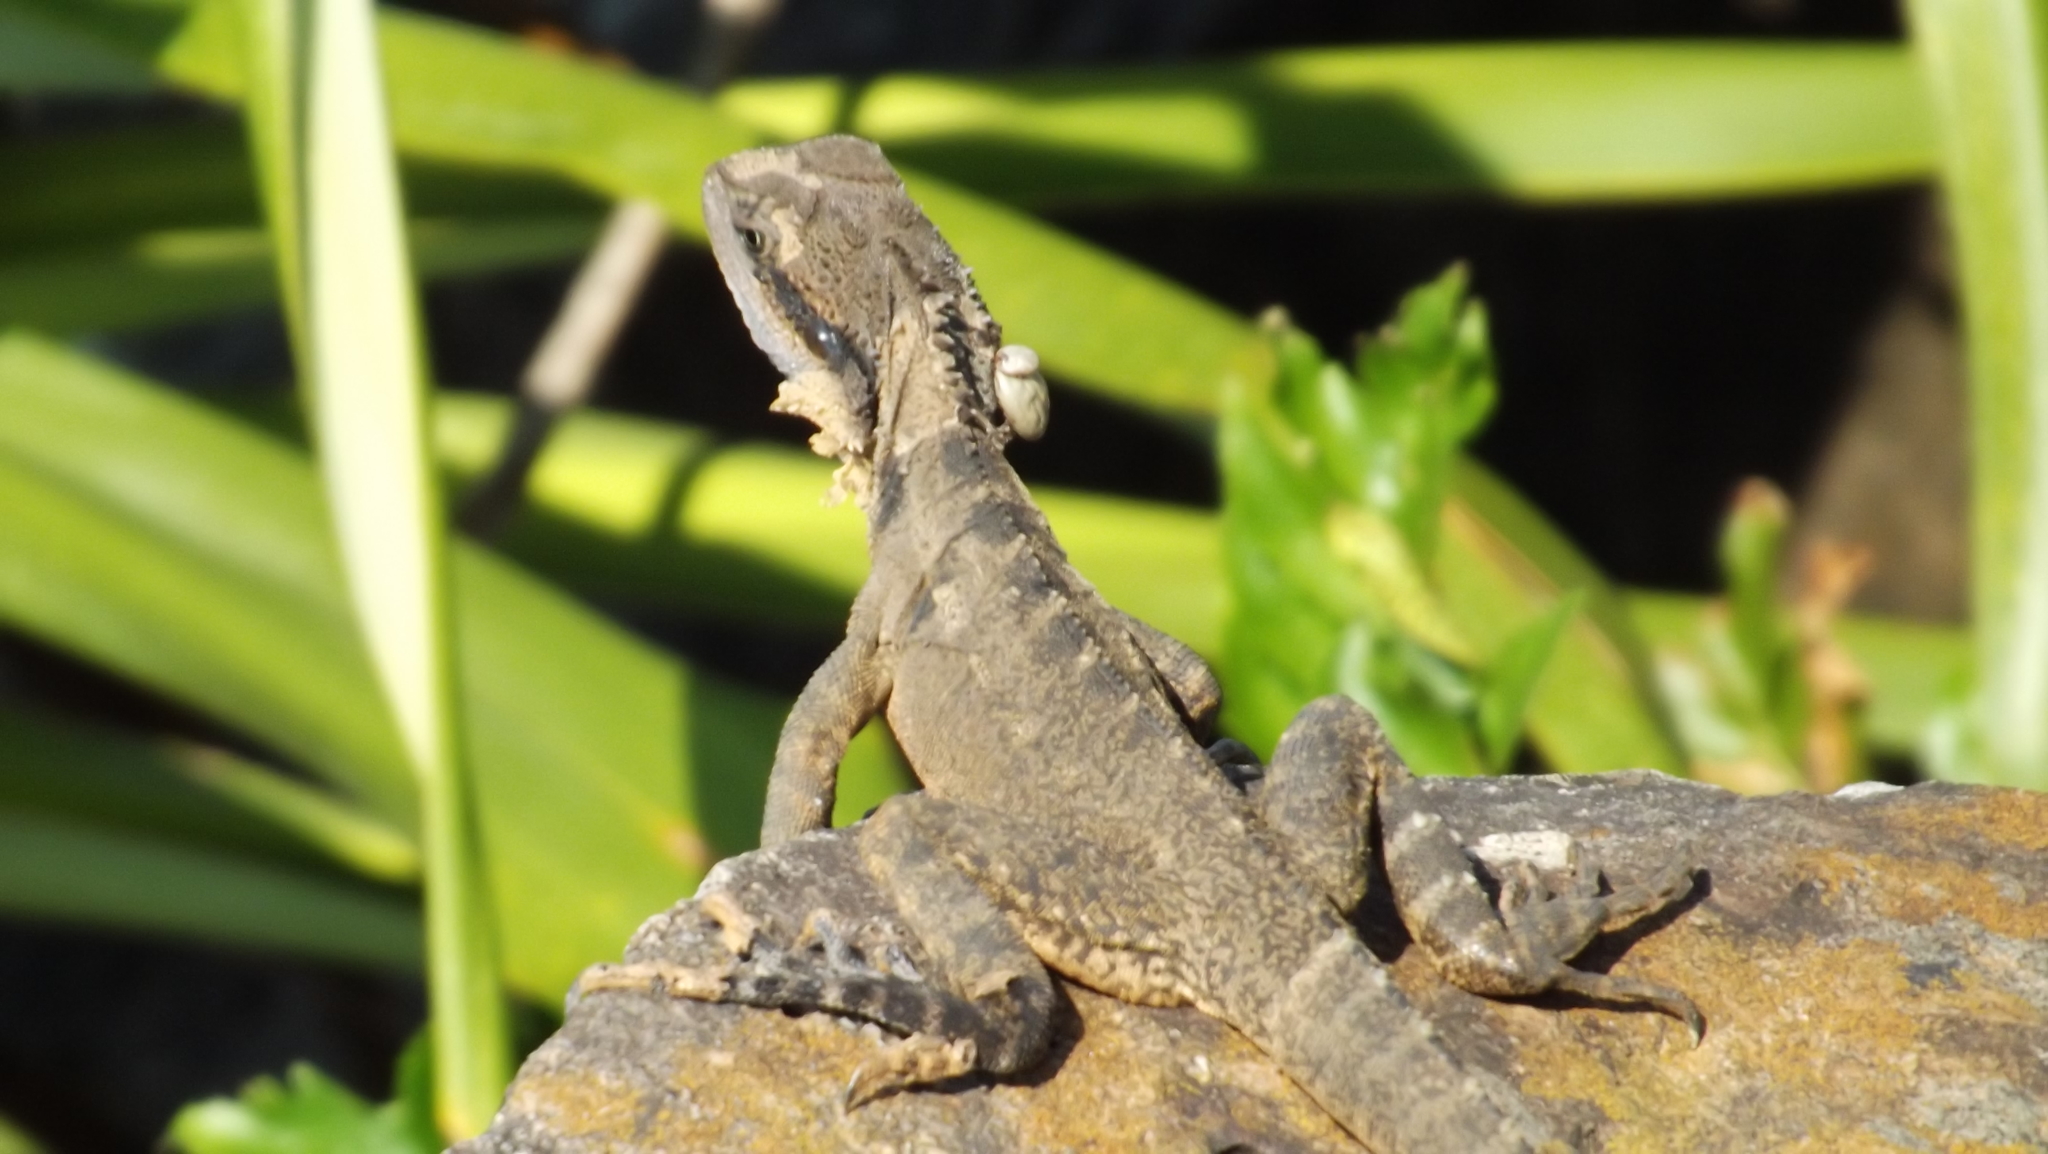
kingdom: Animalia
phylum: Chordata
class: Squamata
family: Agamidae
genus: Intellagama
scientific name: Intellagama lesueurii
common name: Eastern water dragon
